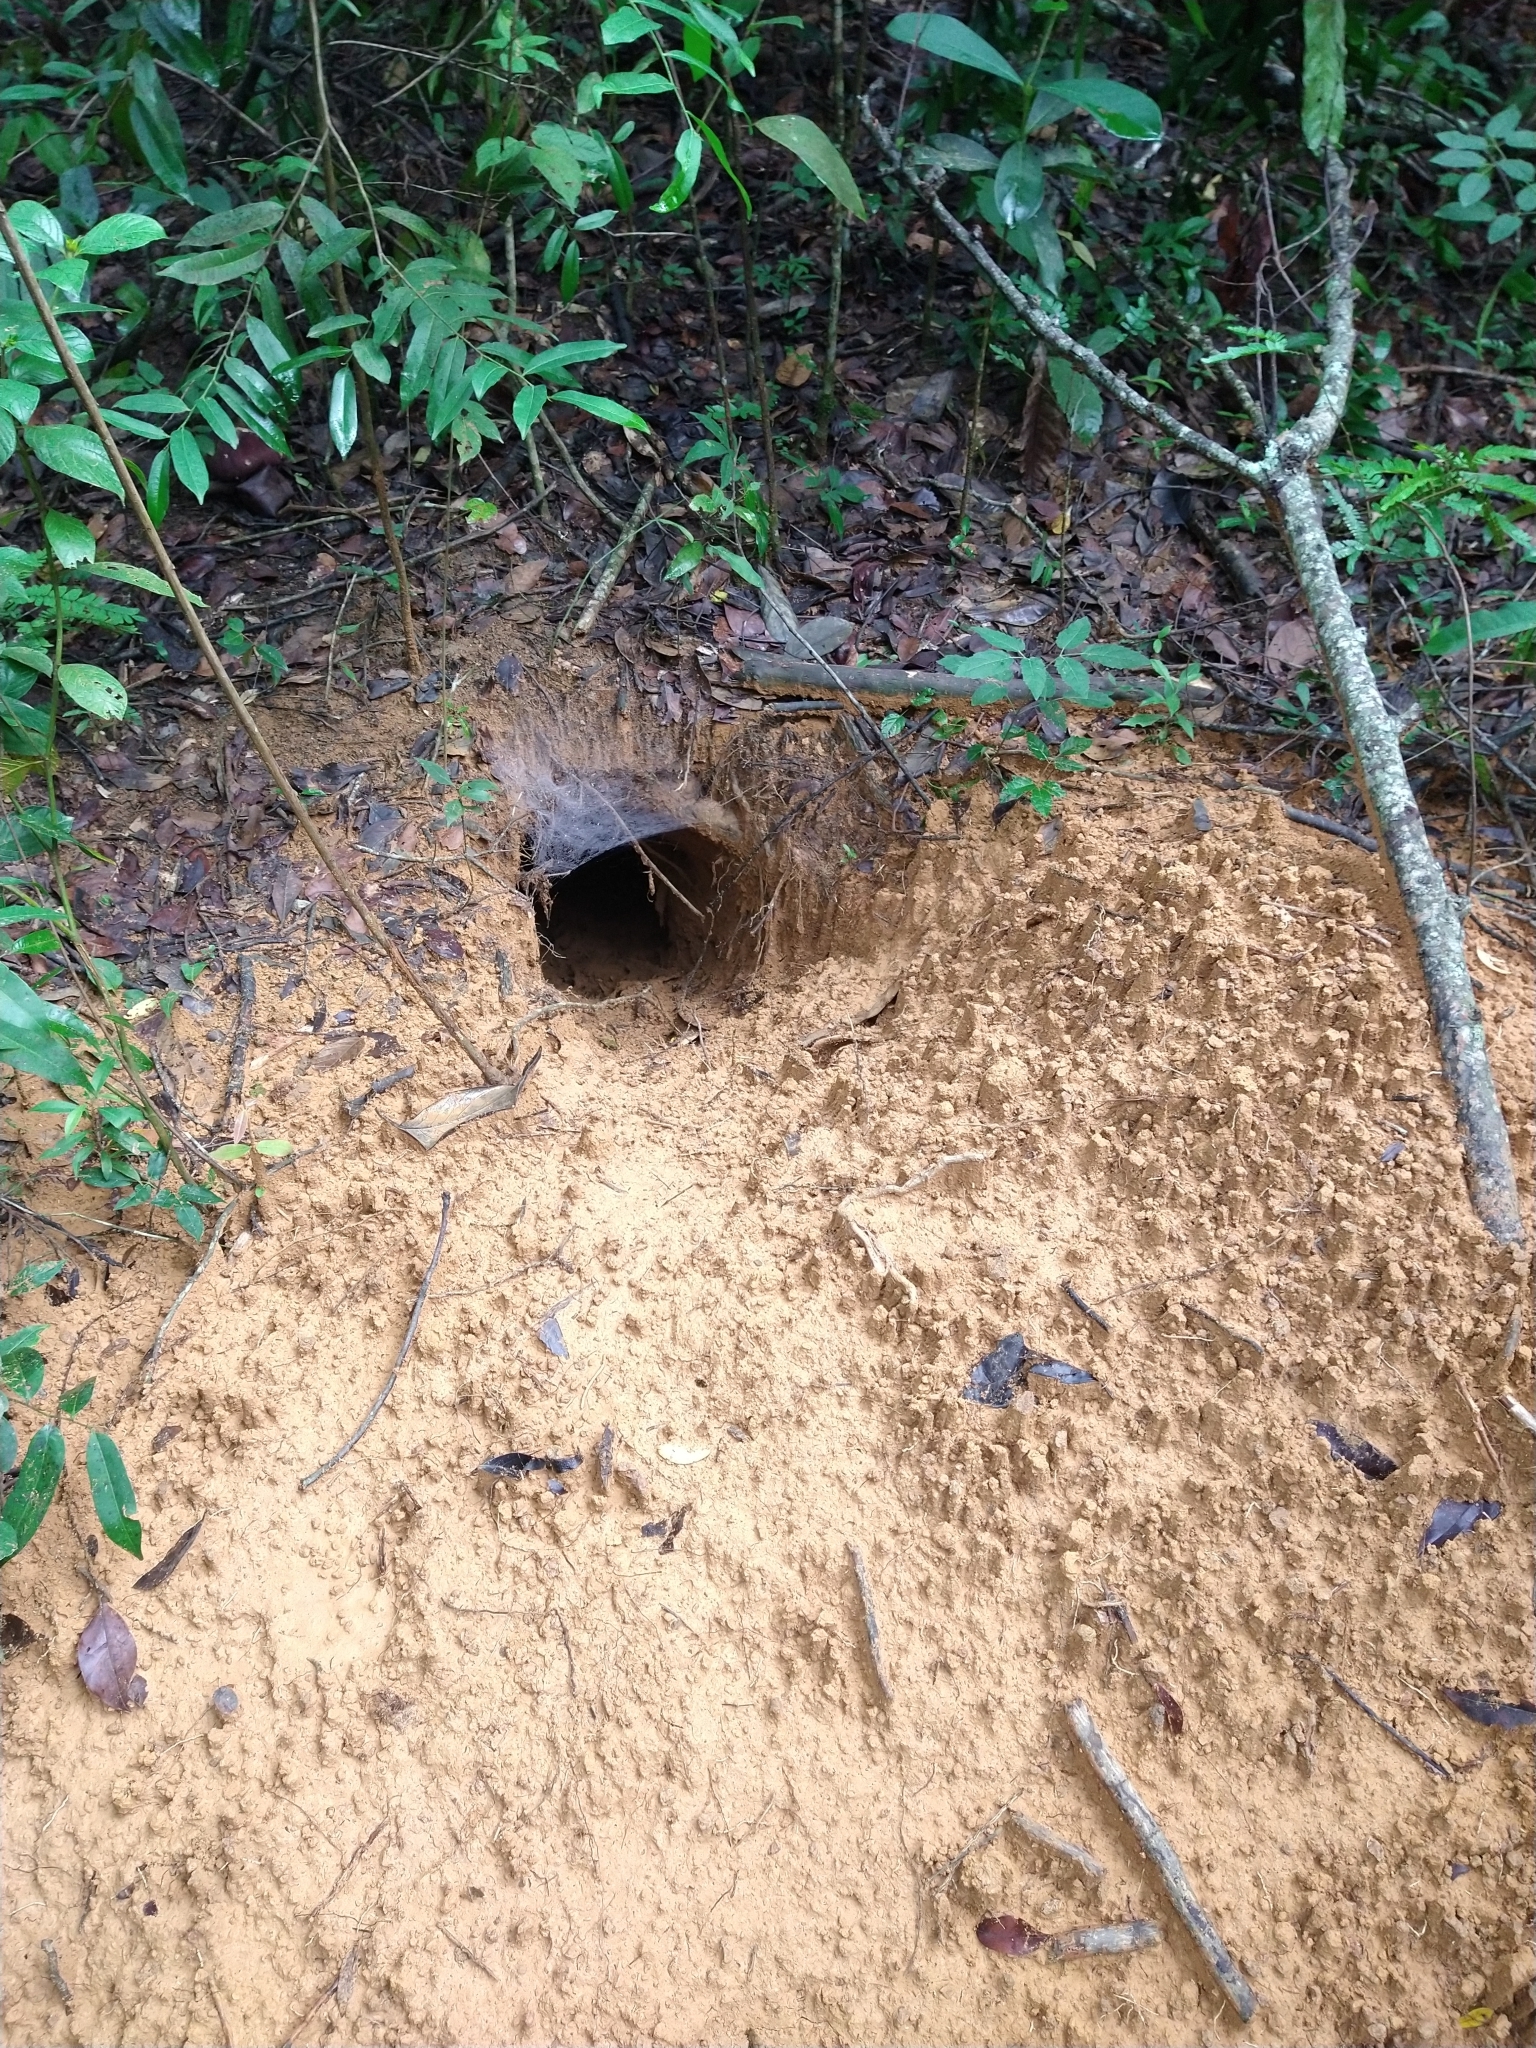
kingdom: Animalia
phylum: Chordata
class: Mammalia
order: Cingulata
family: Dasypodidae
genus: Priodontes
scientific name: Priodontes maximus
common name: Giant armadillo
